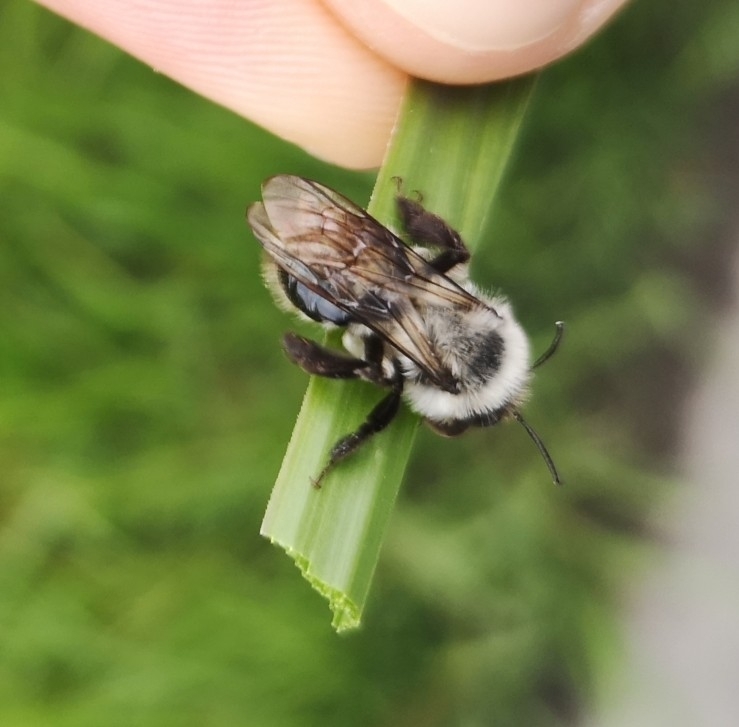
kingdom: Animalia
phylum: Arthropoda
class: Insecta
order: Hymenoptera
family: Andrenidae
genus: Andrena
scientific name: Andrena vaga
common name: Grey-backed mining bee
